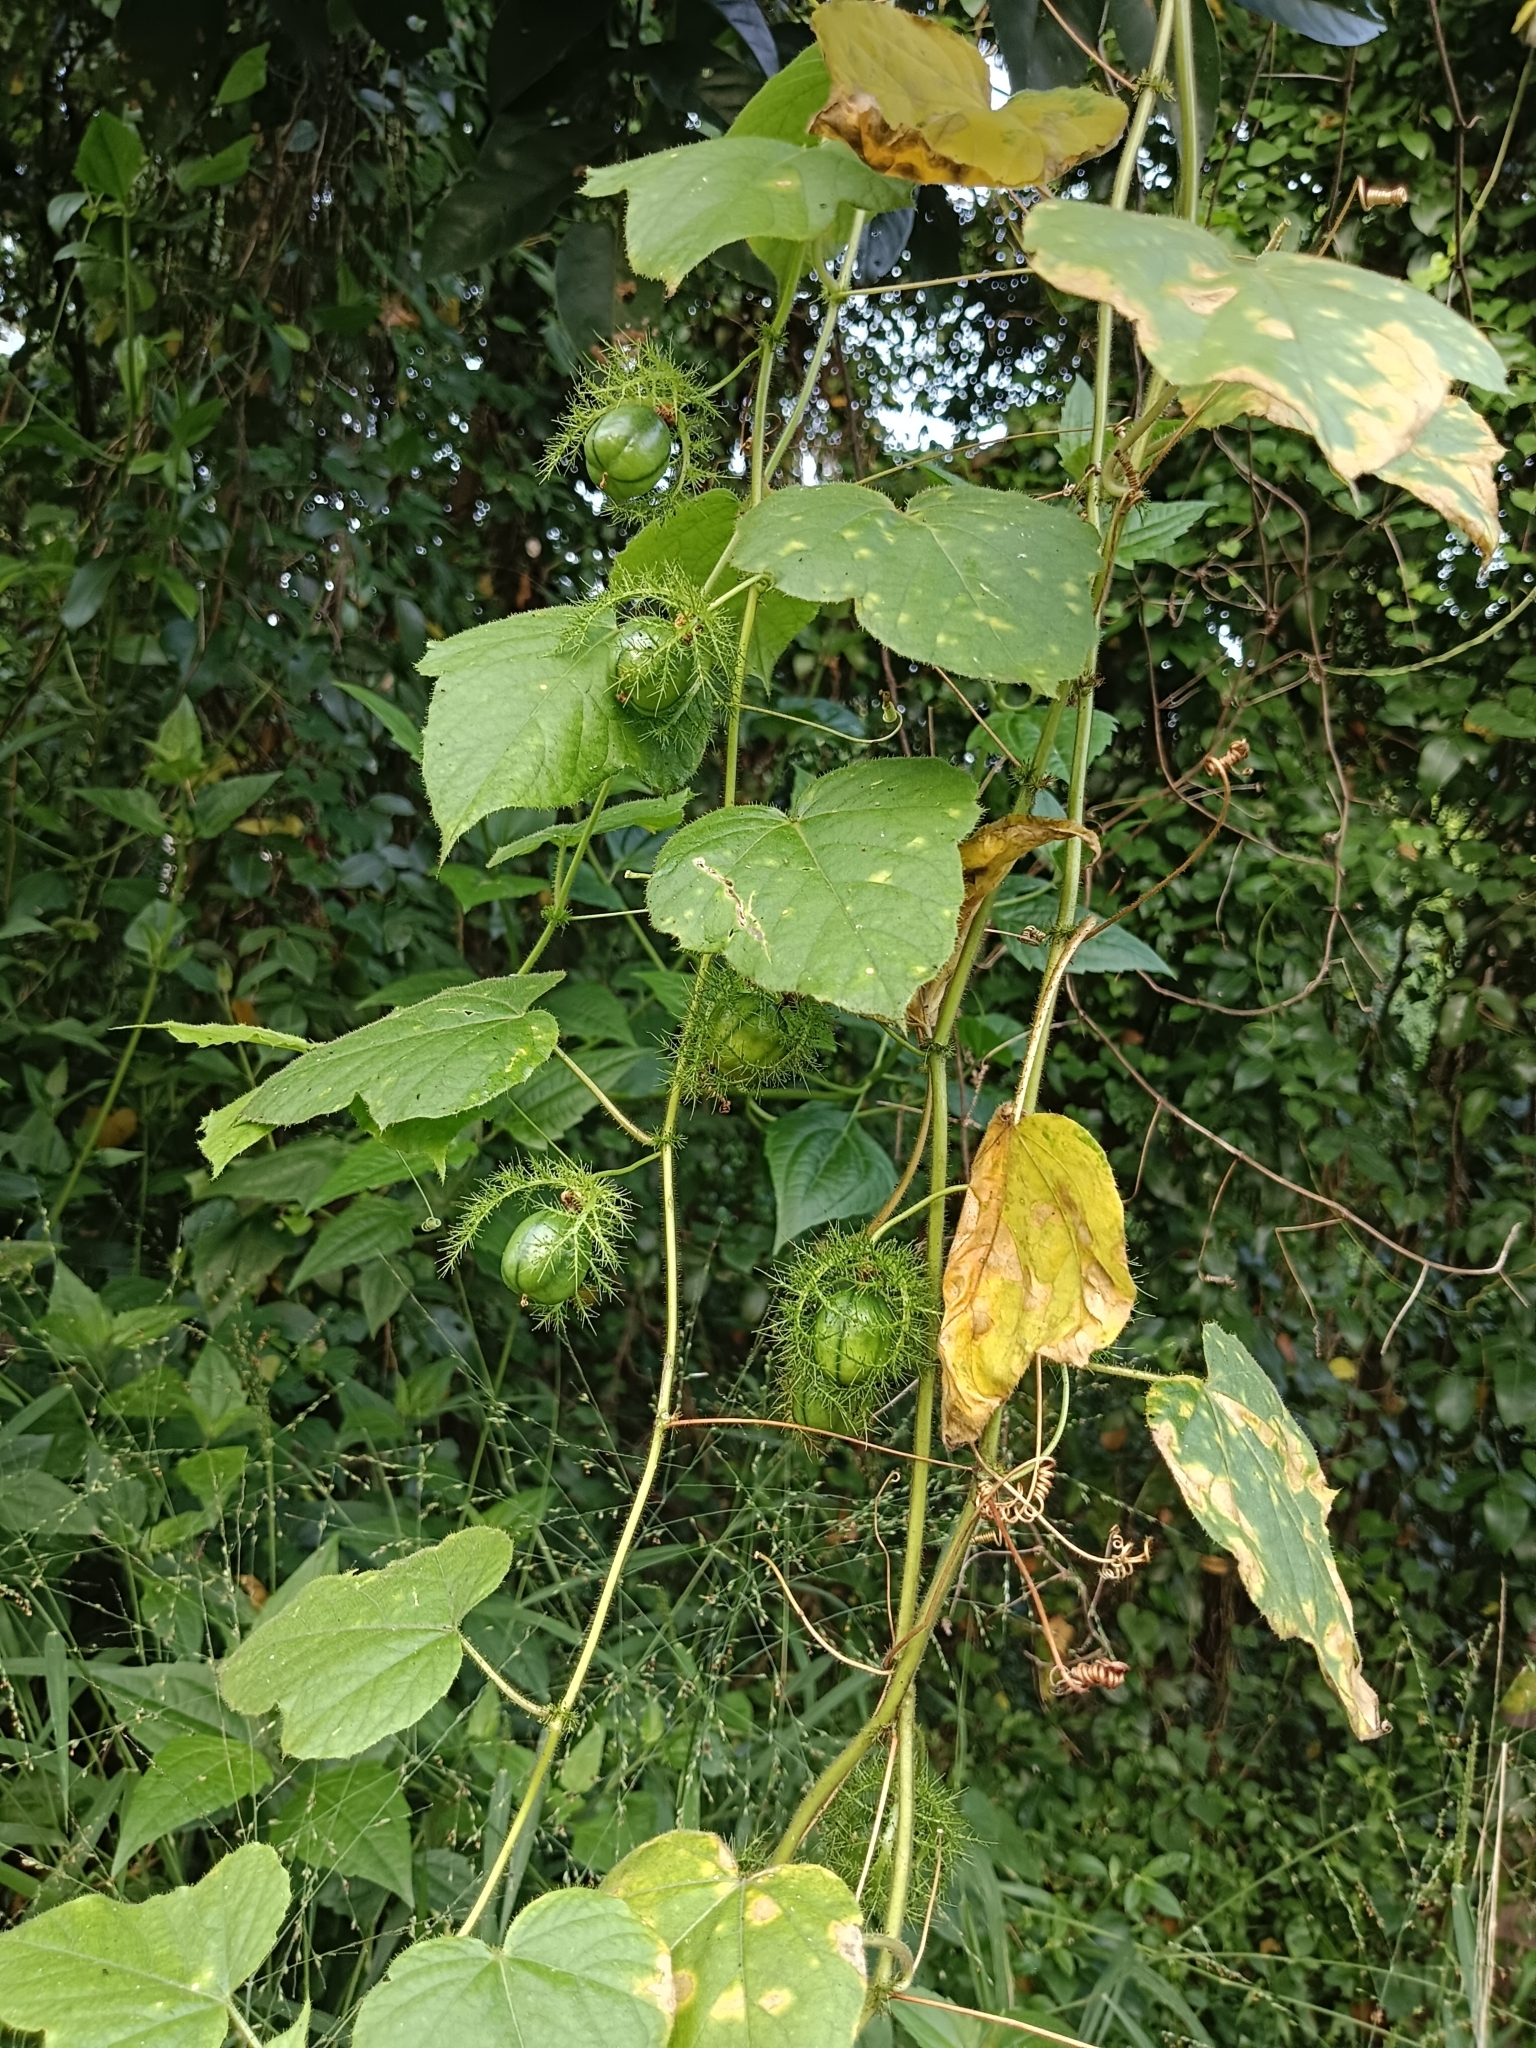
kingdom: Plantae
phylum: Tracheophyta
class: Magnoliopsida
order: Malpighiales
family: Passifloraceae
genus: Passiflora
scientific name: Passiflora vesicaria
